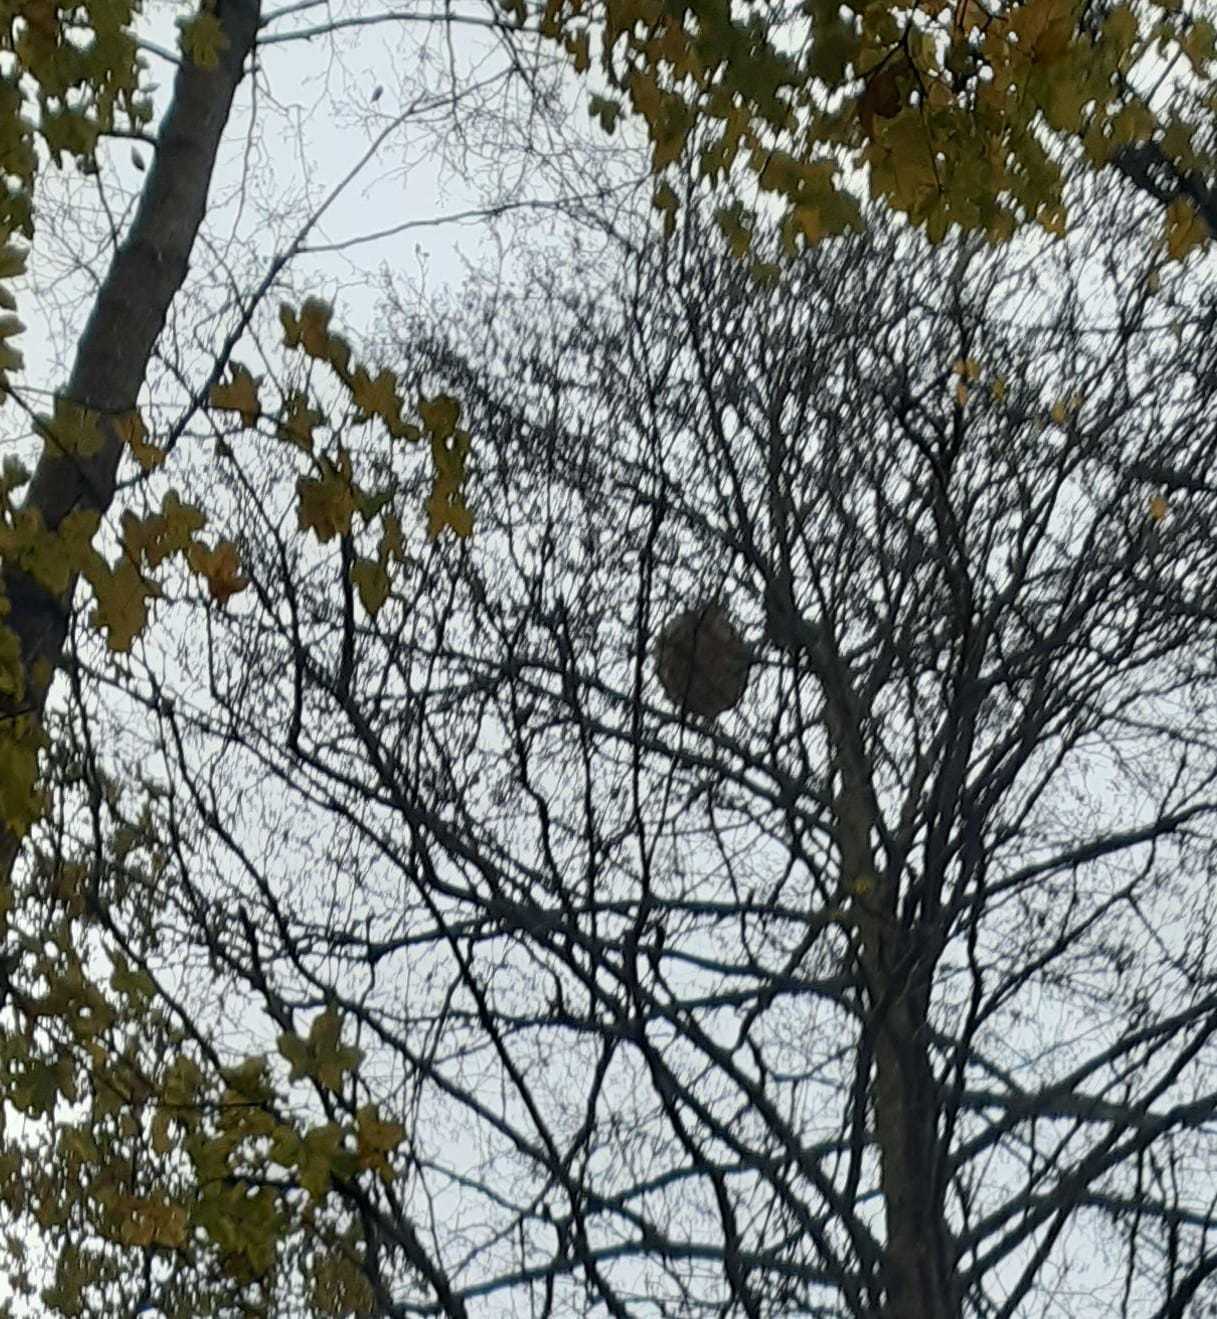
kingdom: Animalia
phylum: Arthropoda
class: Insecta
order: Hymenoptera
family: Vespidae
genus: Vespa
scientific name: Vespa velutina
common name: Asian hornet
